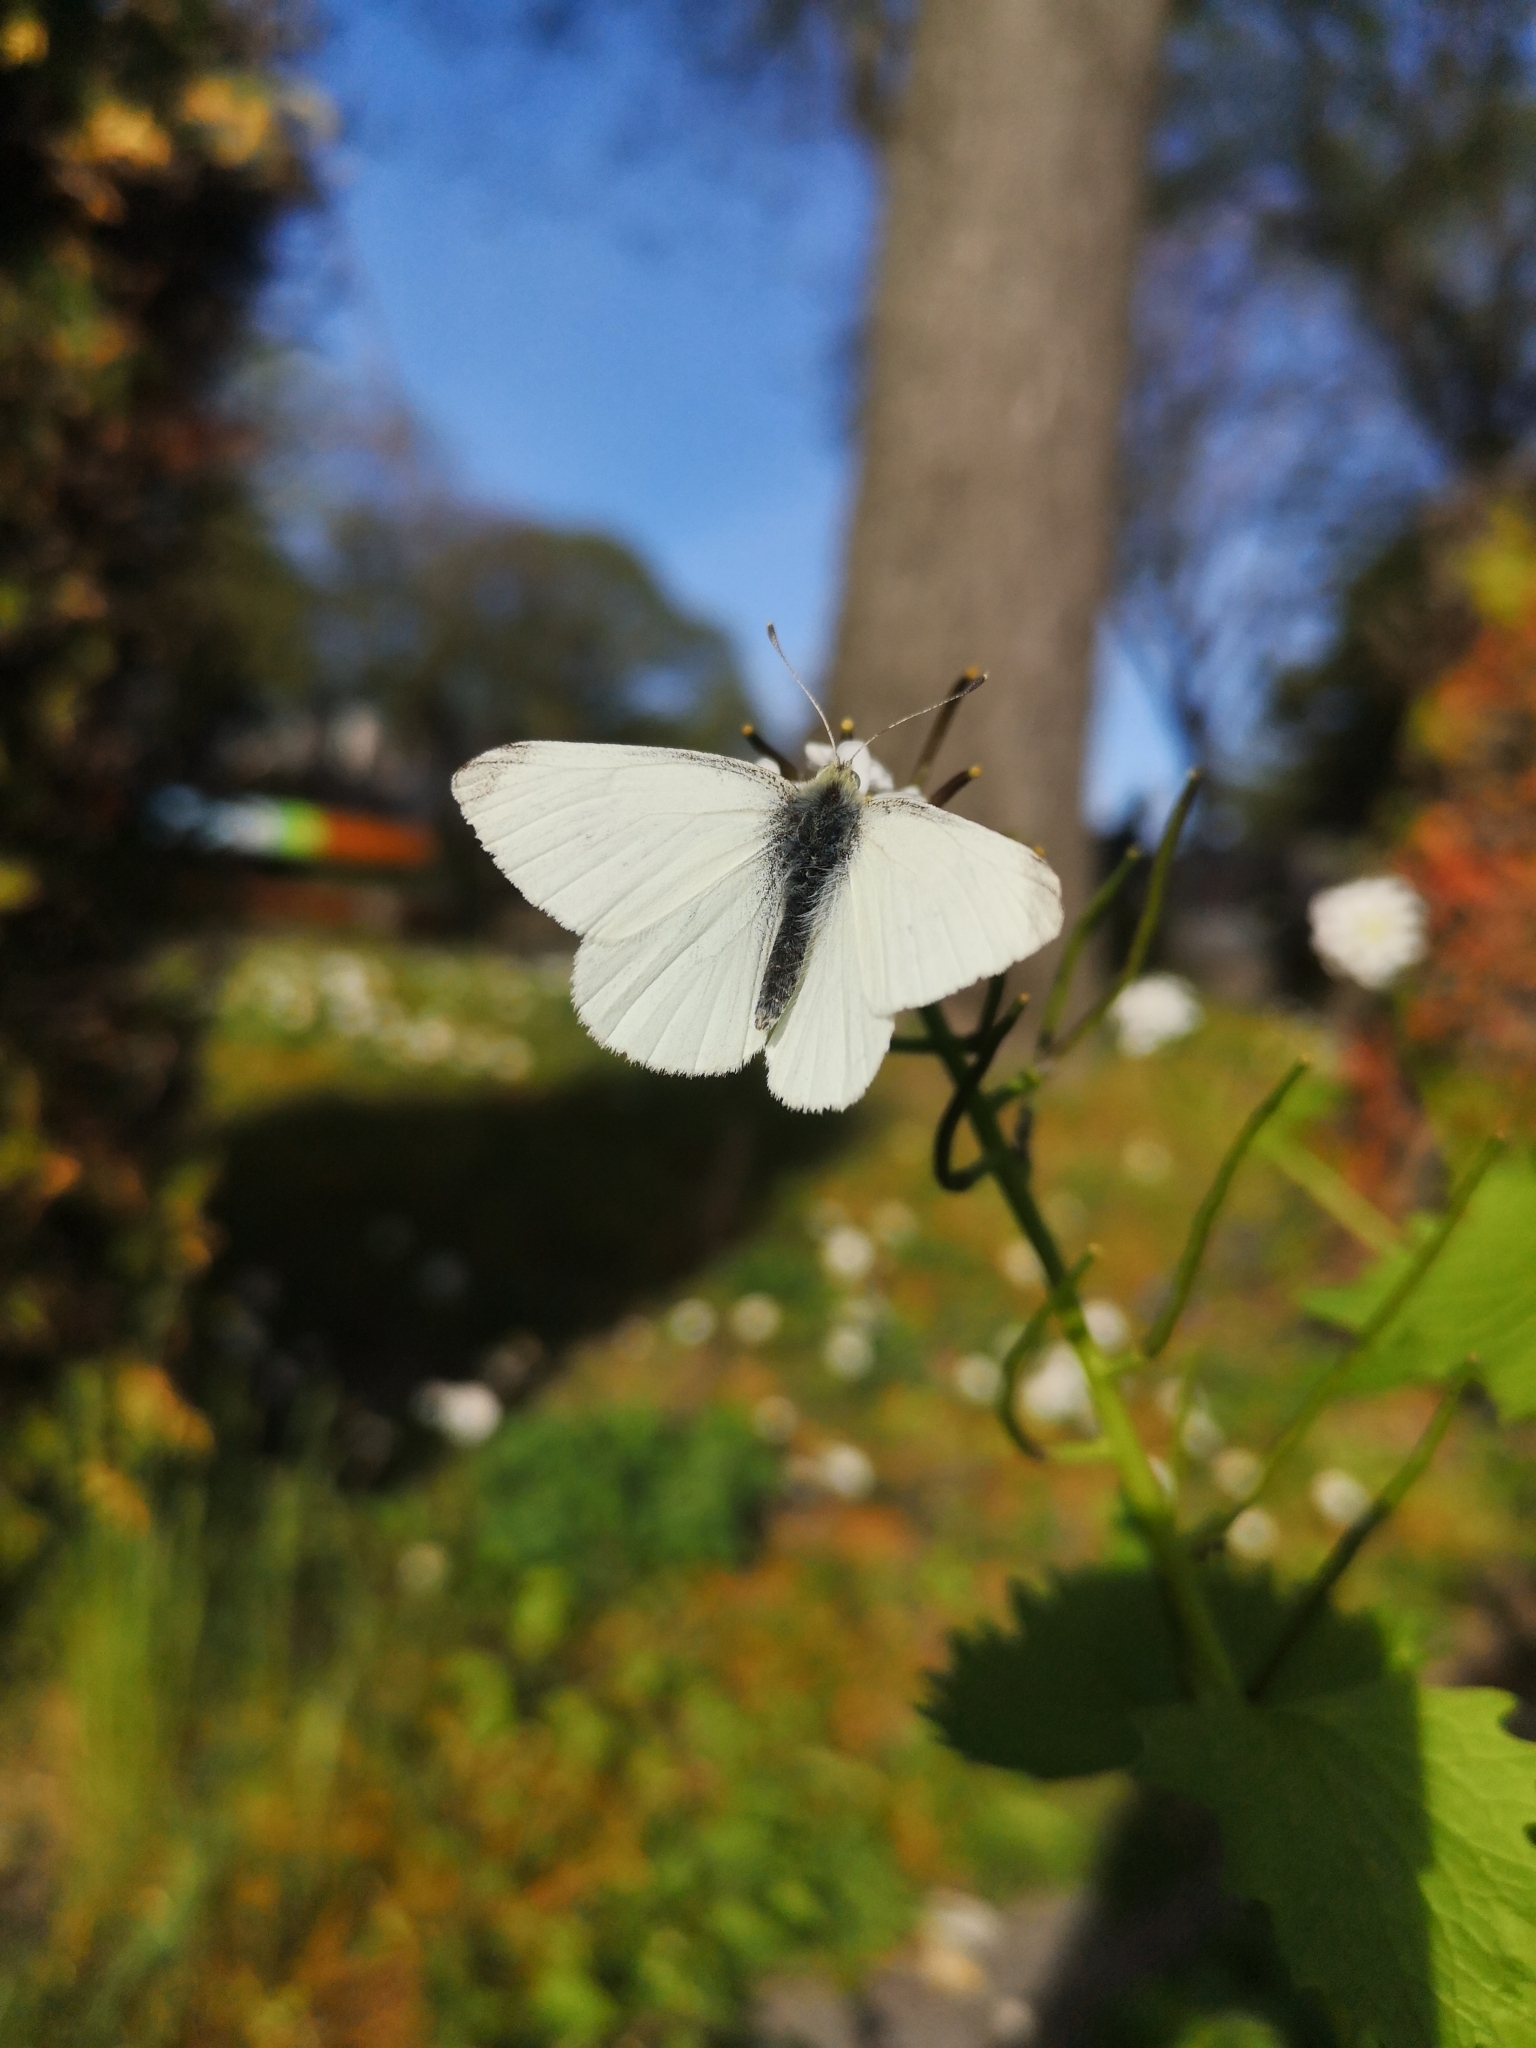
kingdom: Animalia
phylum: Arthropoda
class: Insecta
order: Lepidoptera
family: Pieridae
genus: Pieris
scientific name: Pieris rapae
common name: Small white
